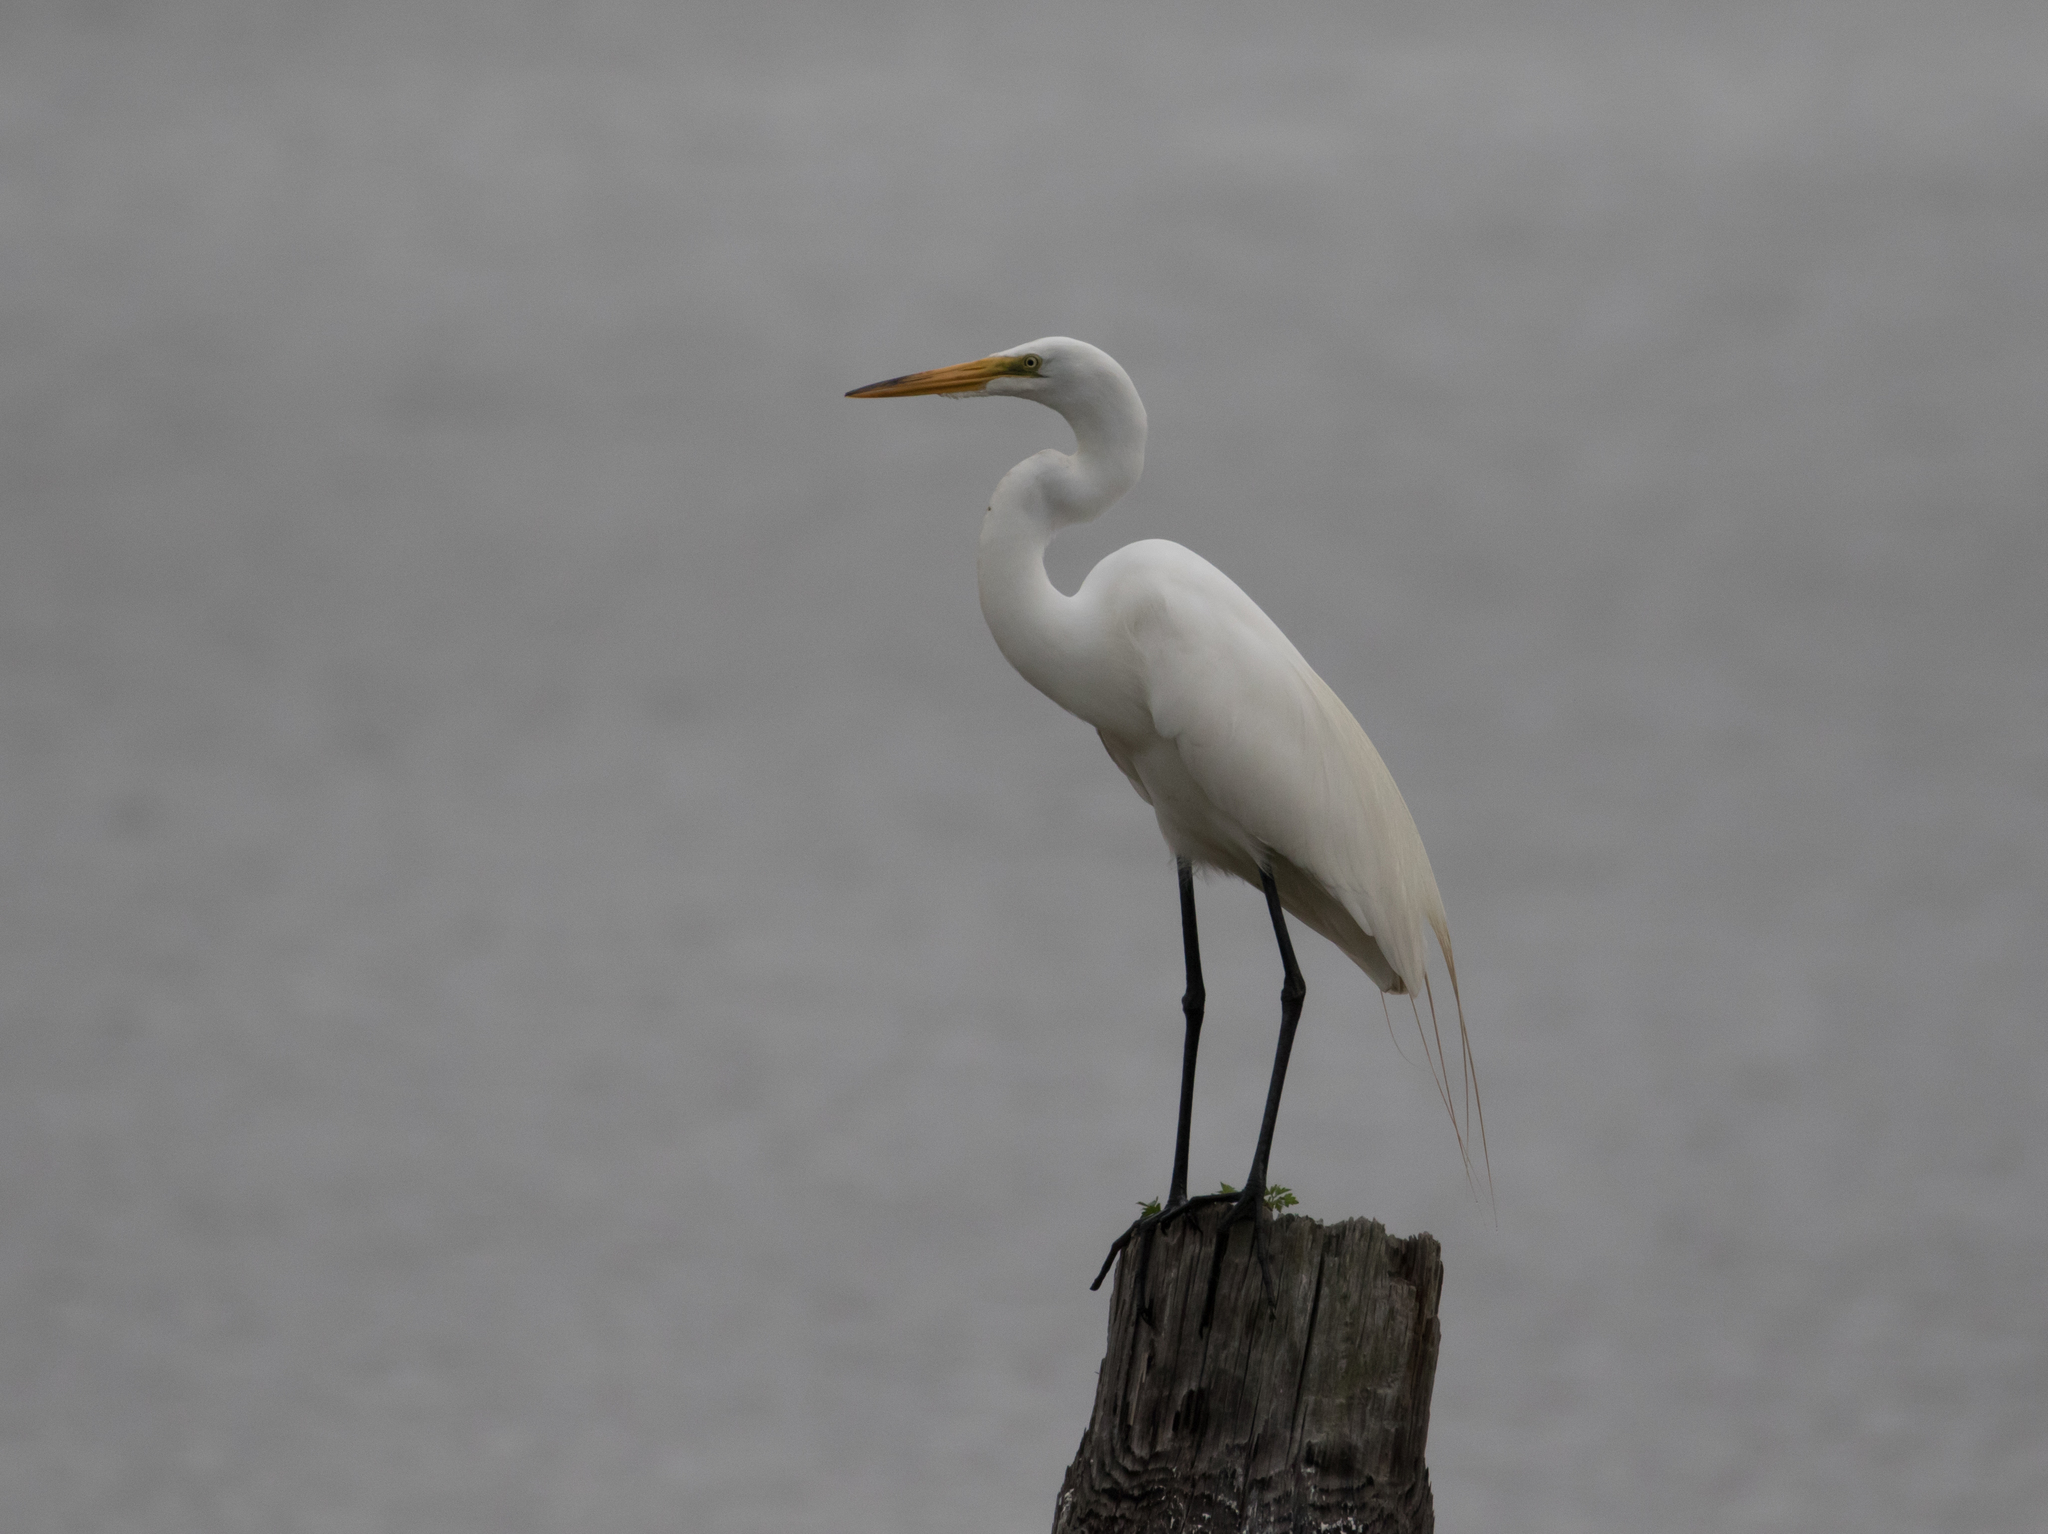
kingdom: Animalia
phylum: Chordata
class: Aves
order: Pelecaniformes
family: Ardeidae
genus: Ardea
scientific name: Ardea alba
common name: Great egret
